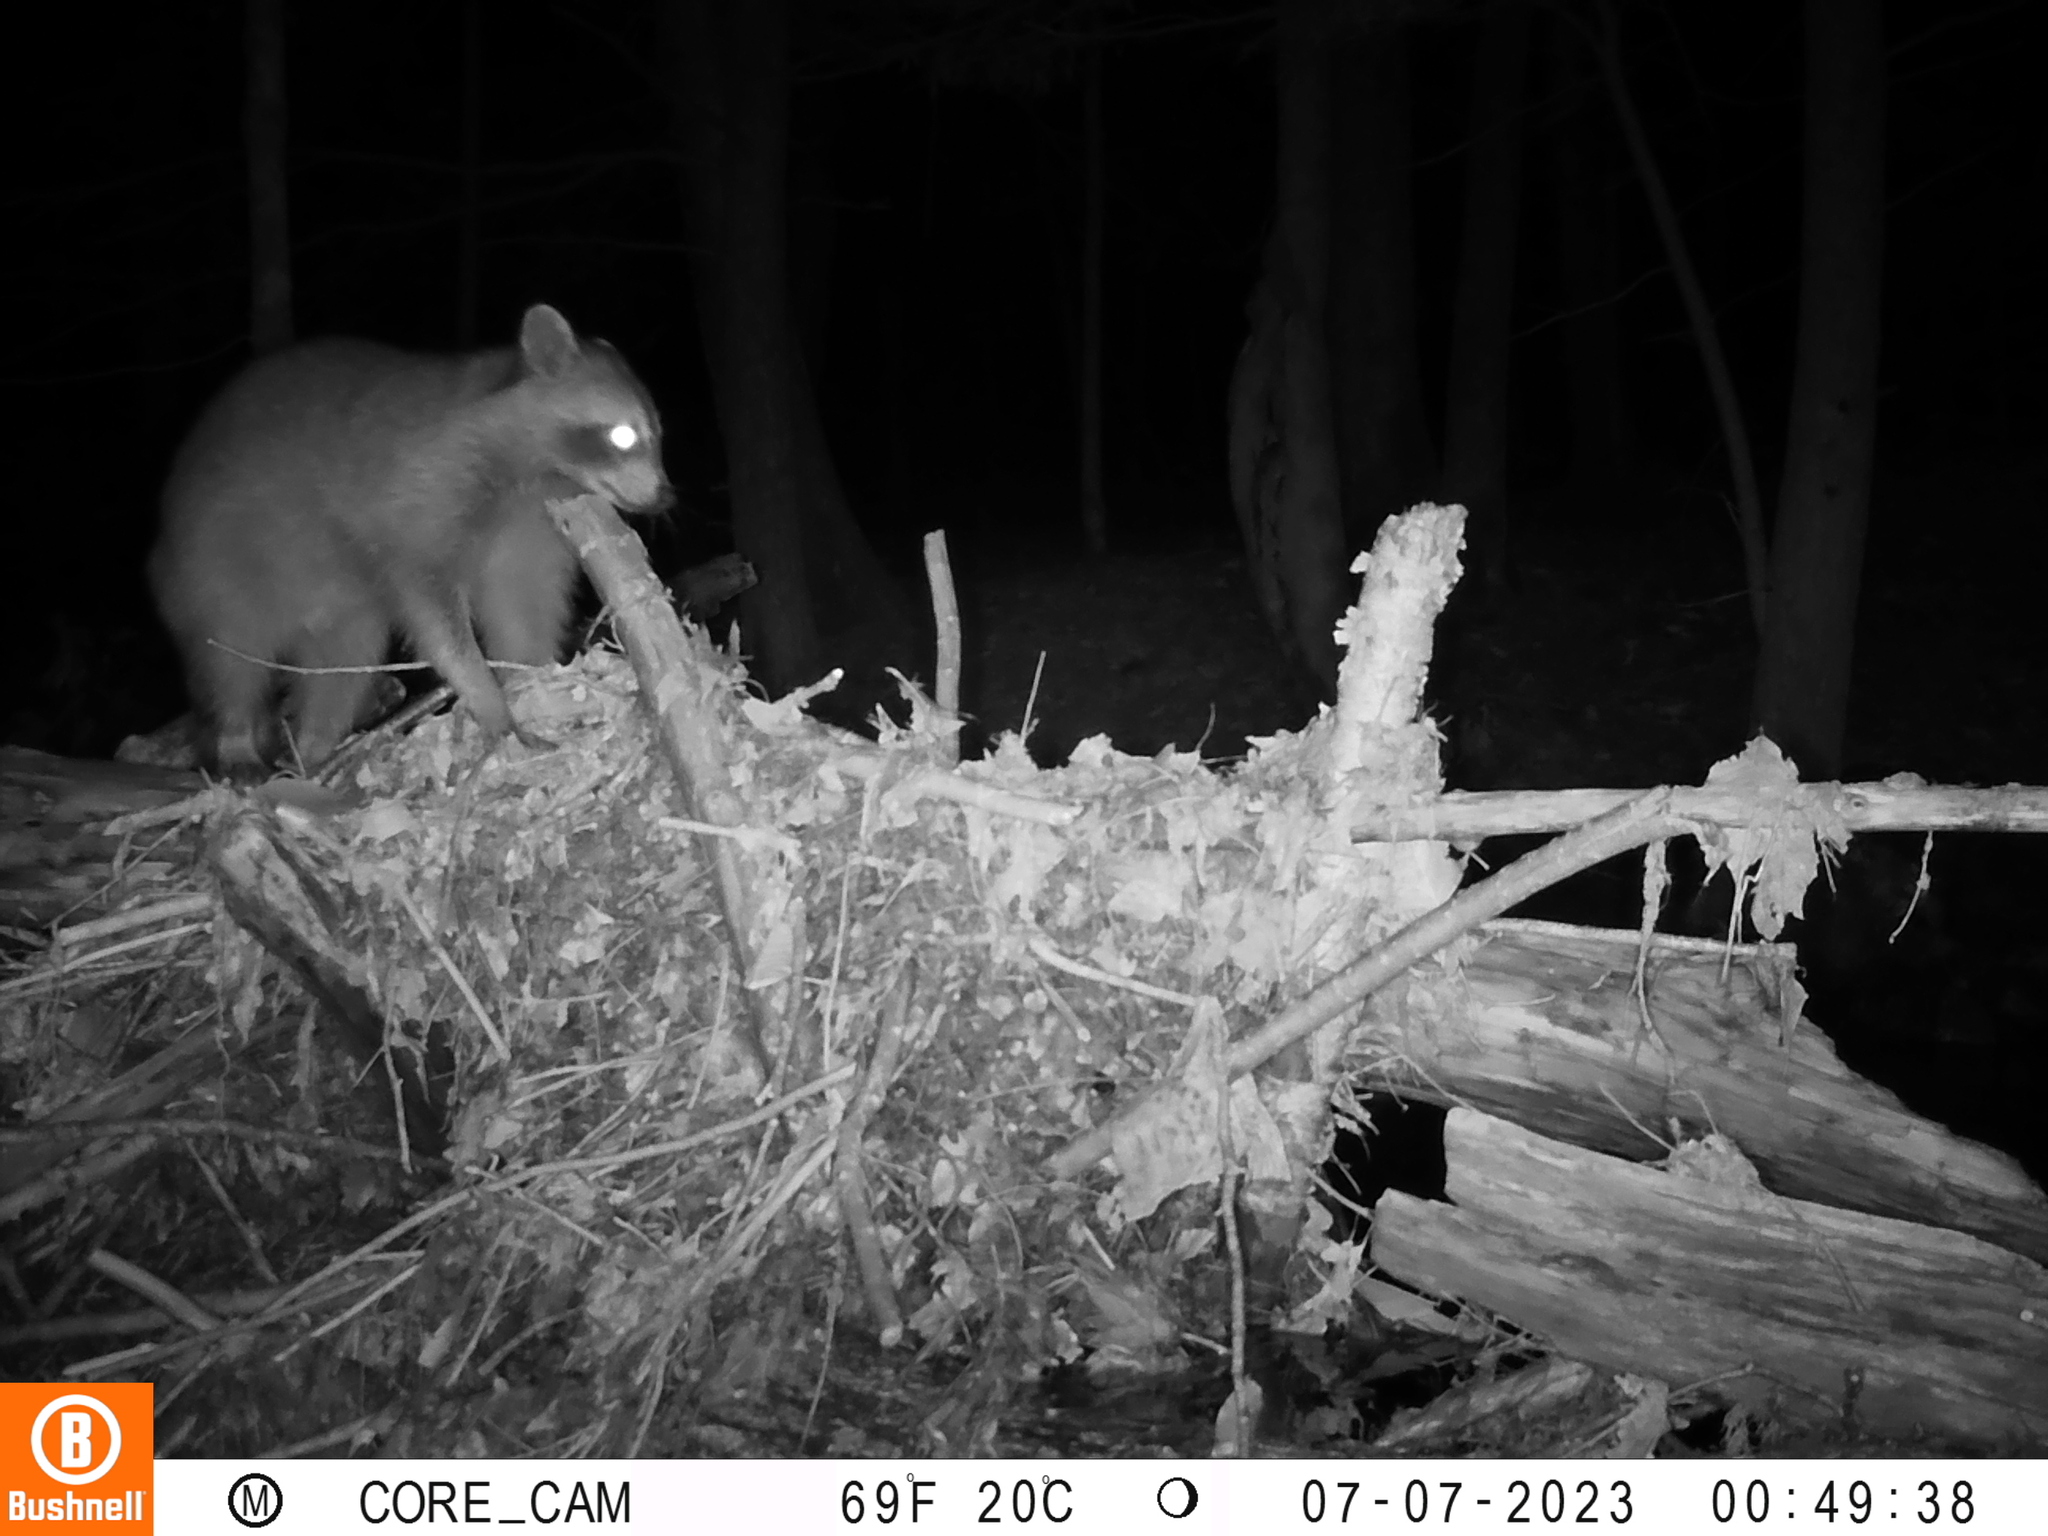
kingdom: Animalia
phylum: Chordata
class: Mammalia
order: Carnivora
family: Procyonidae
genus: Procyon
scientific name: Procyon lotor
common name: Raccoon
